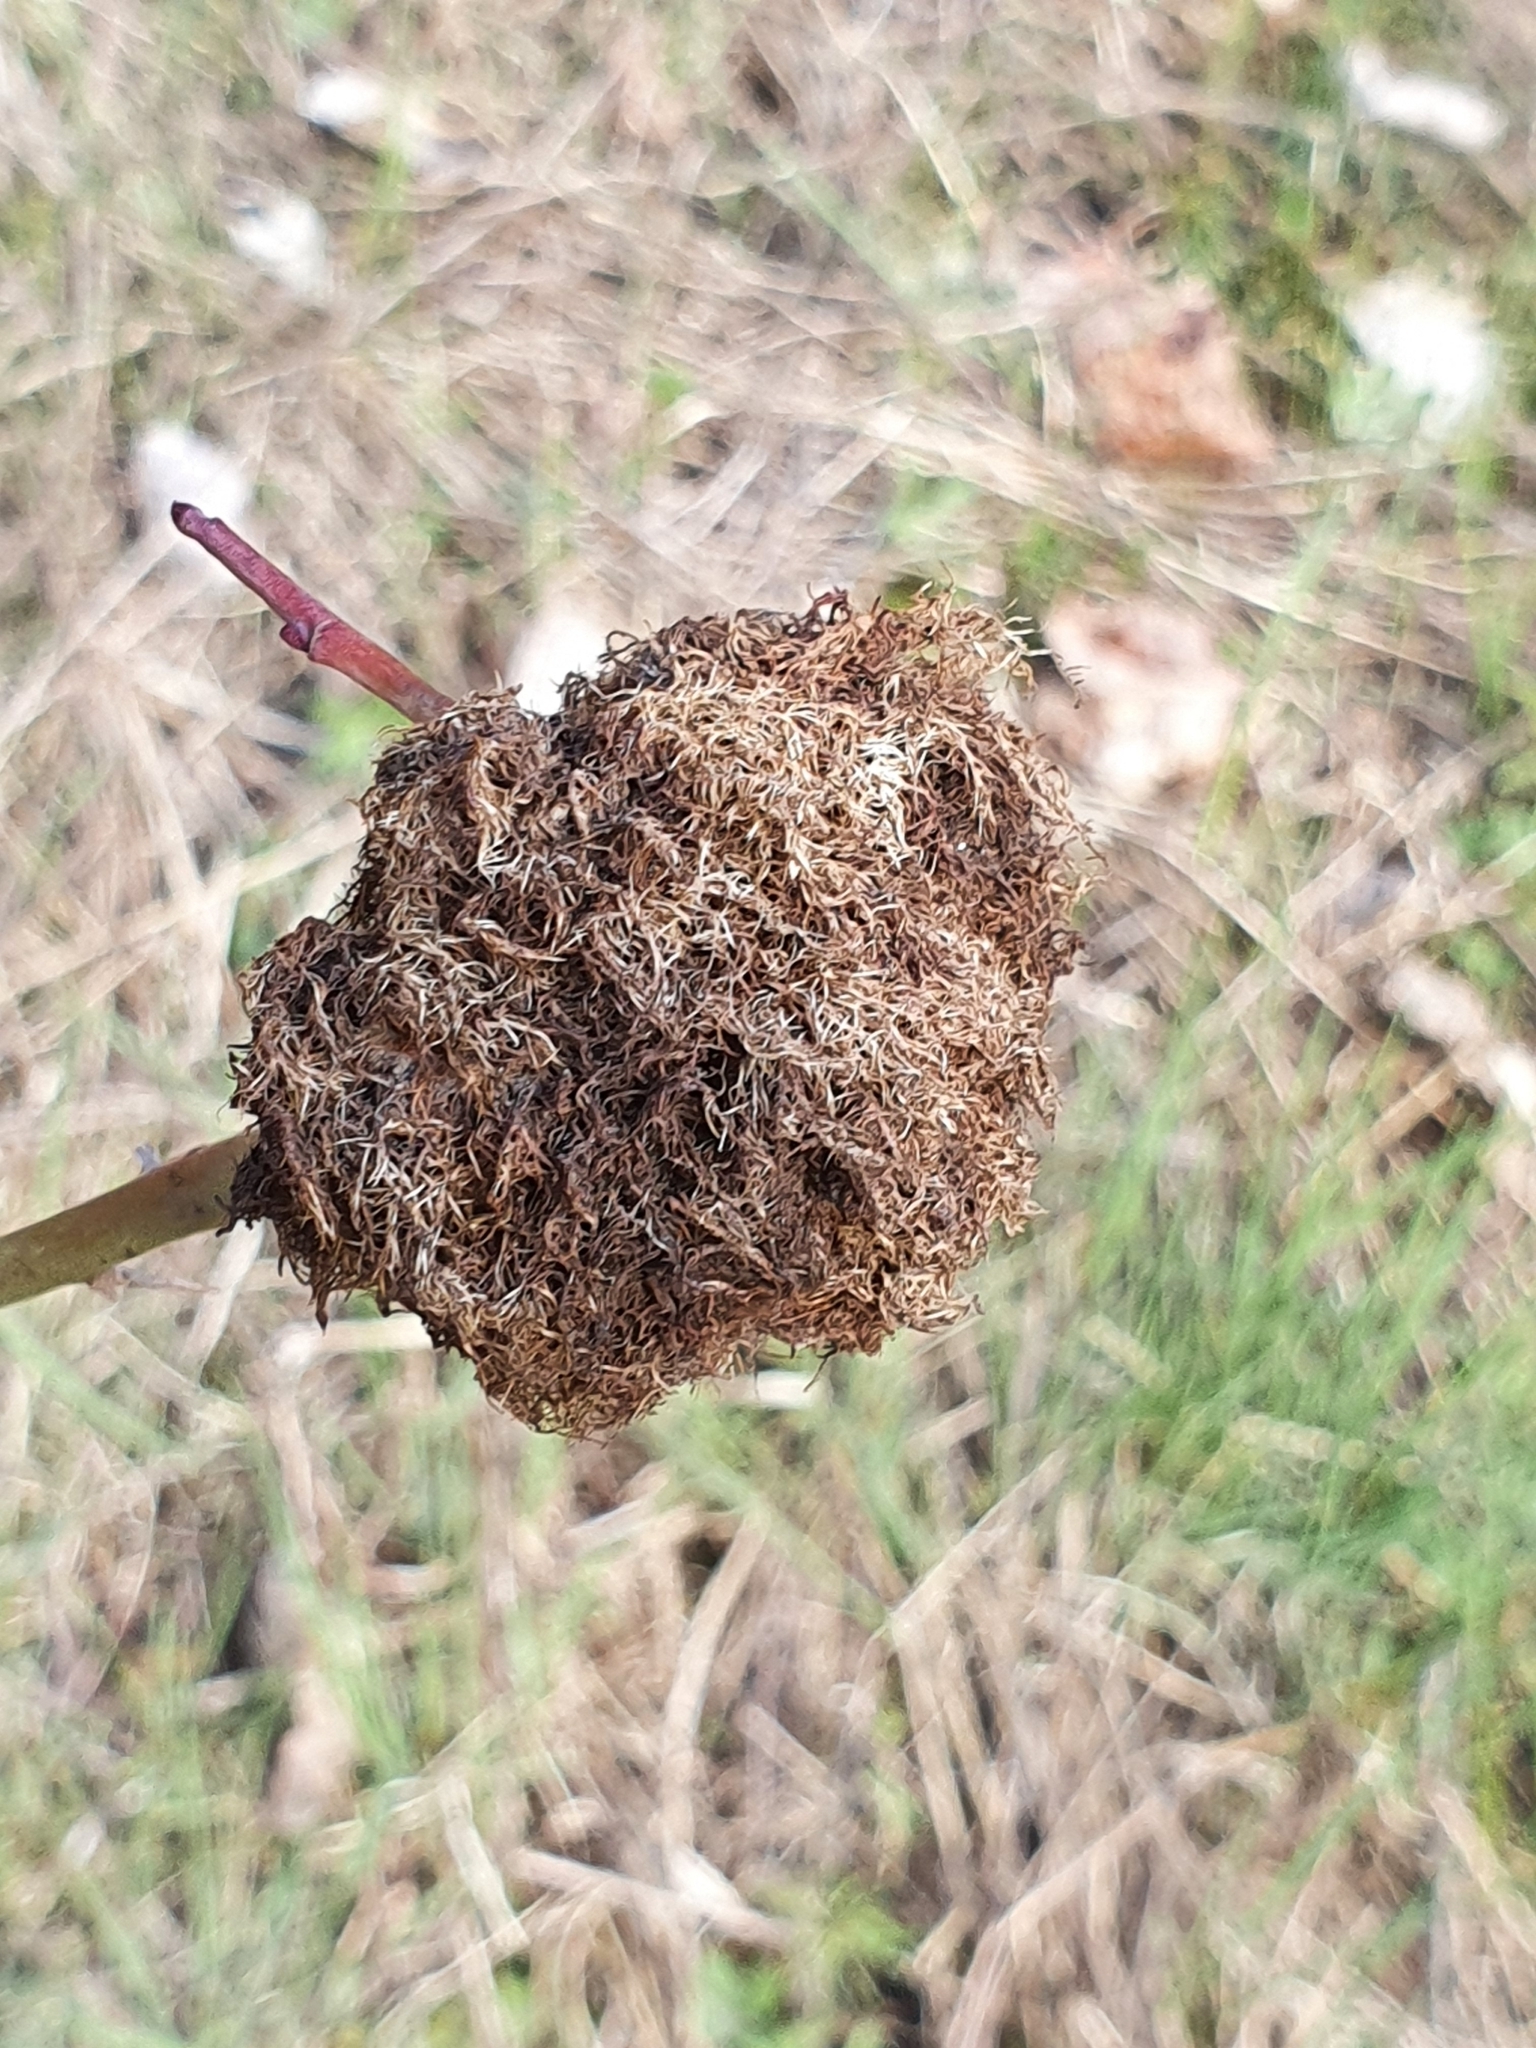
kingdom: Animalia
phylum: Arthropoda
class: Insecta
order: Hymenoptera
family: Cynipidae
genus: Diplolepis
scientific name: Diplolepis rosae
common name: Bedeguar gall
